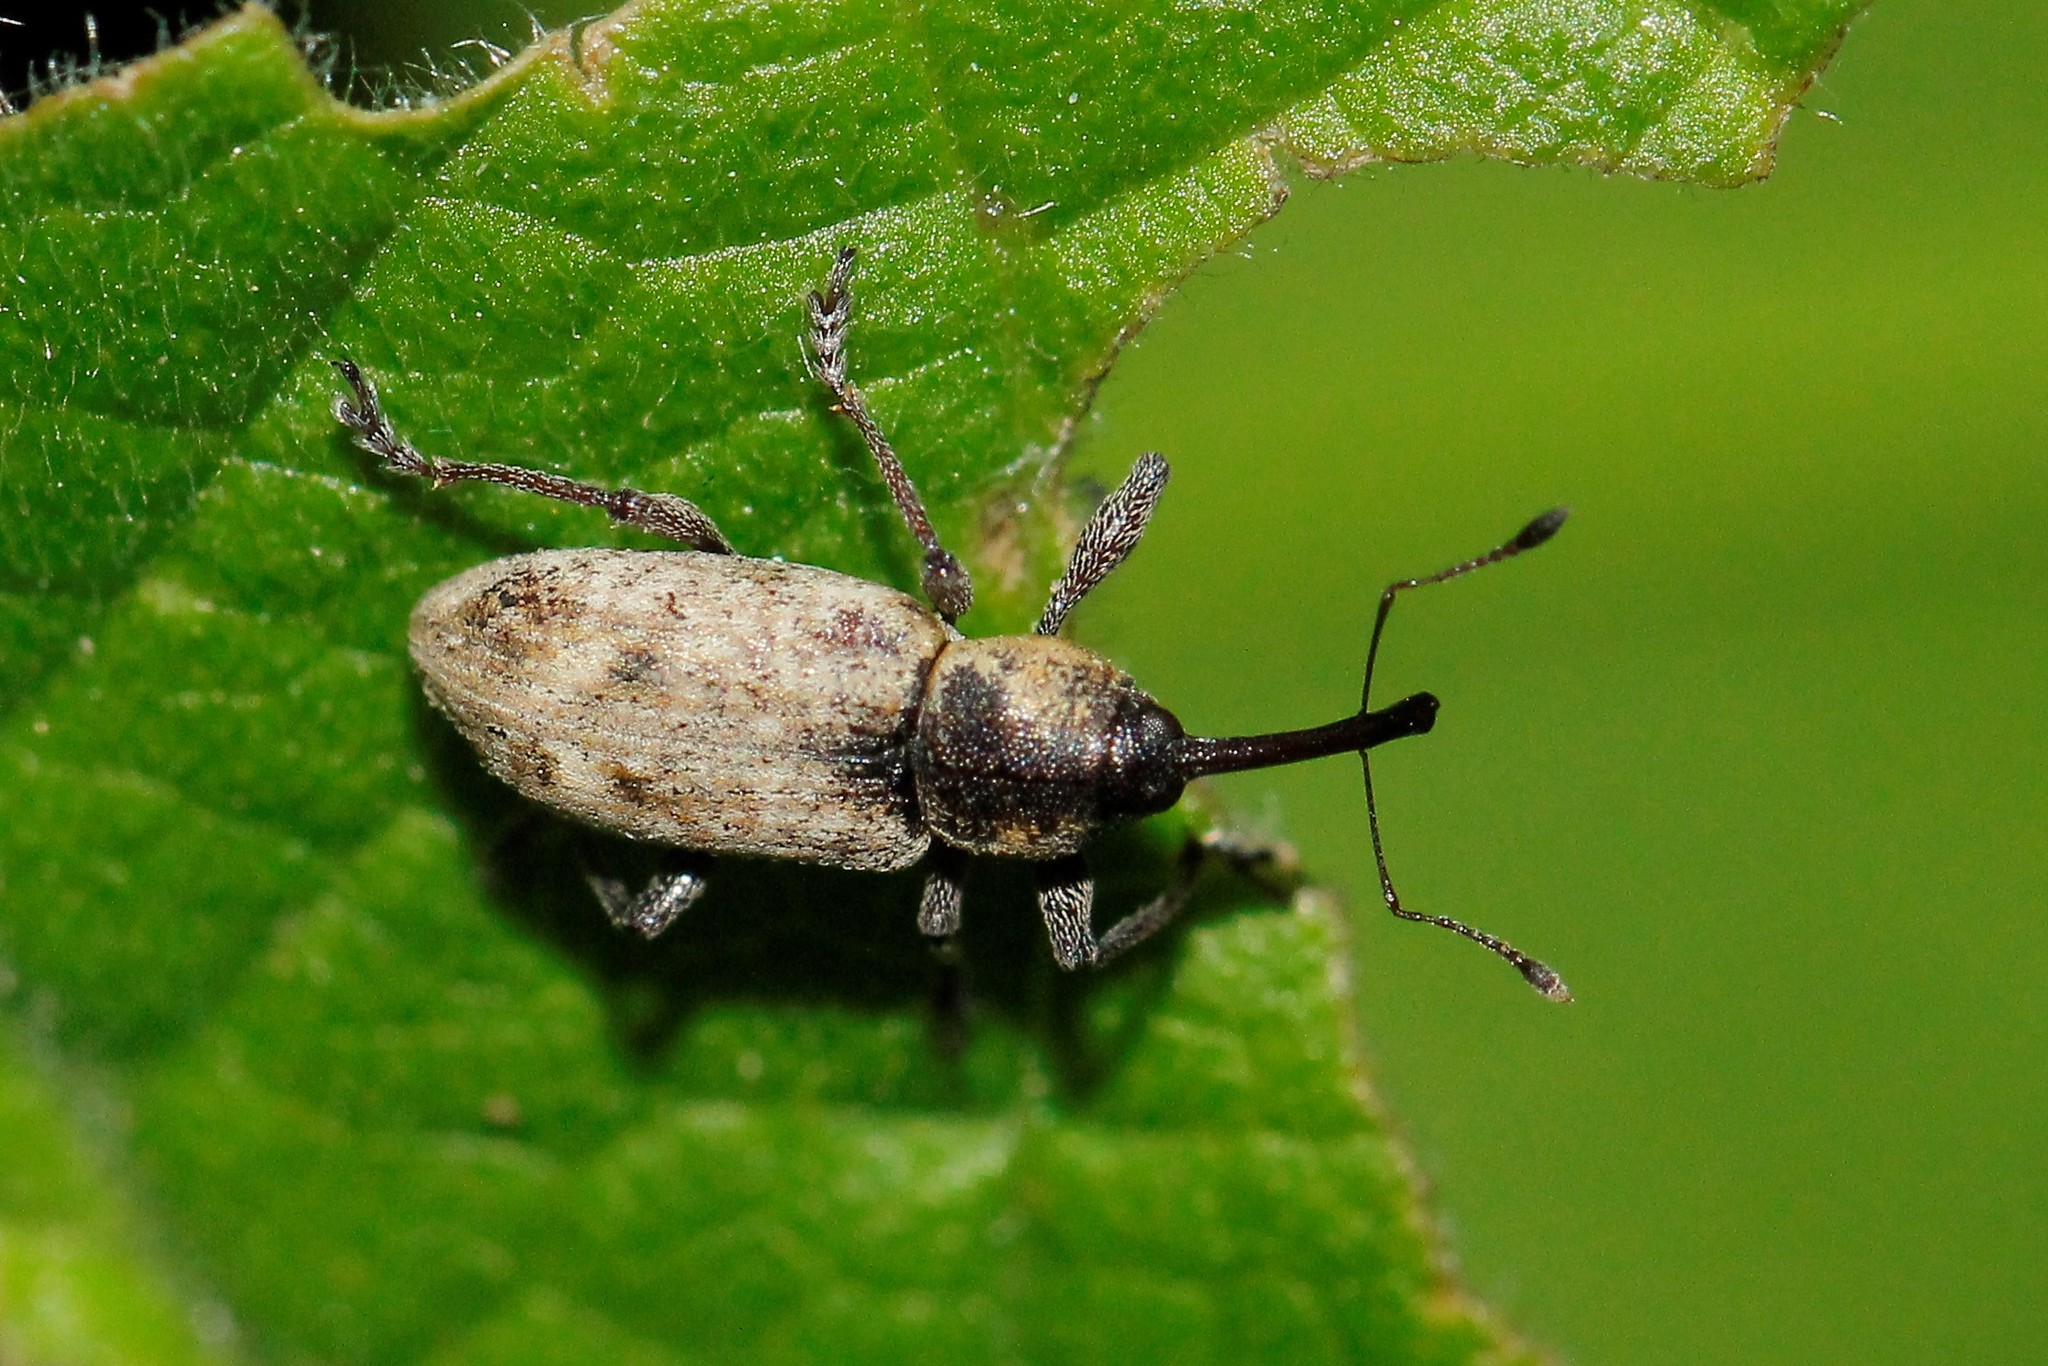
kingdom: Animalia
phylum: Arthropoda
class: Insecta
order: Coleoptera
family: Brachyceridae
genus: Thryogenes
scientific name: Thryogenes festucae
